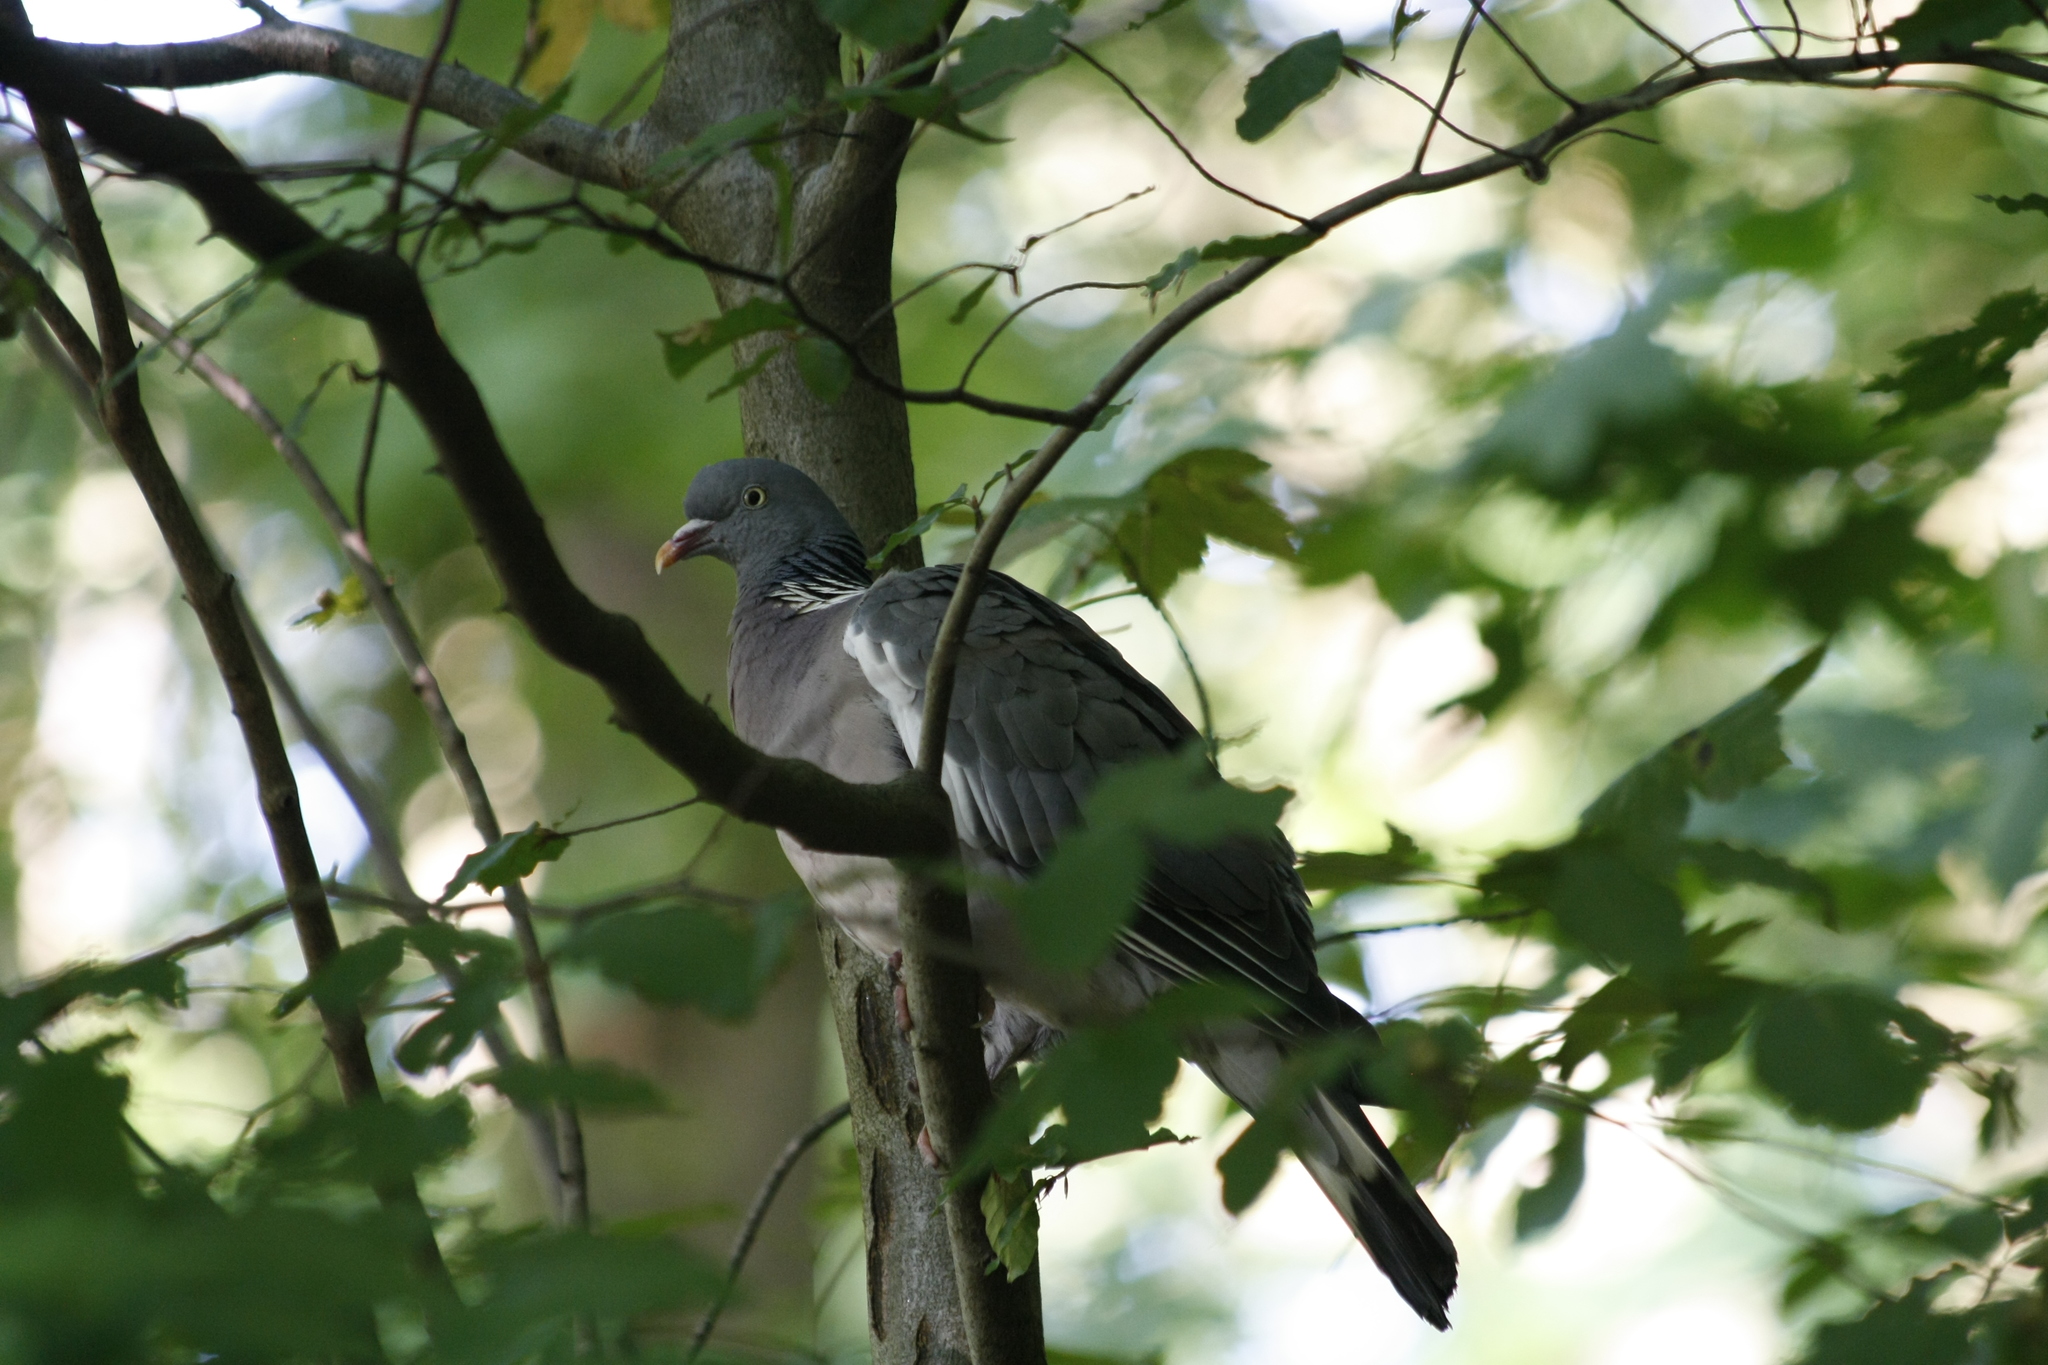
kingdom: Animalia
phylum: Chordata
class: Aves
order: Columbiformes
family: Columbidae
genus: Columba
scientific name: Columba palumbus
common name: Common wood pigeon
